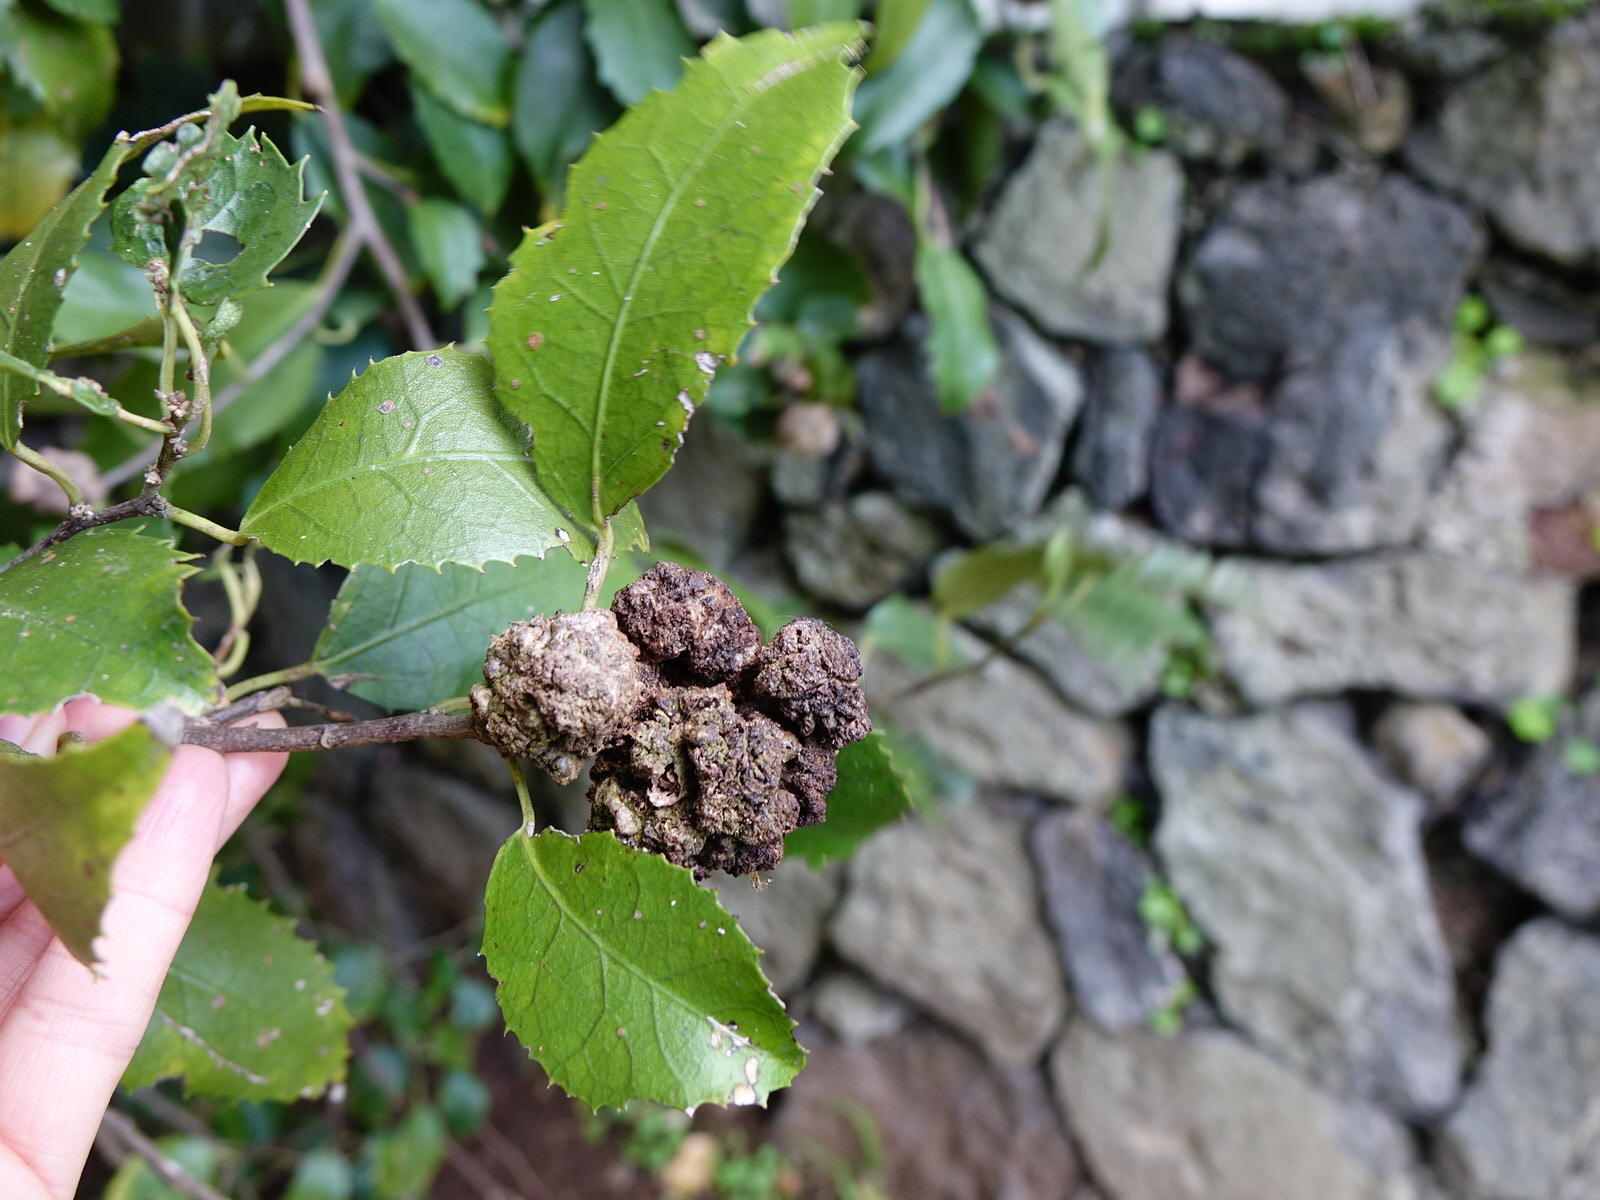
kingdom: Animalia
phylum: Arthropoda
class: Arachnida
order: Trombidiformes
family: Eriophyidae
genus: Eriophyes
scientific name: Eriophyes hoheriae
